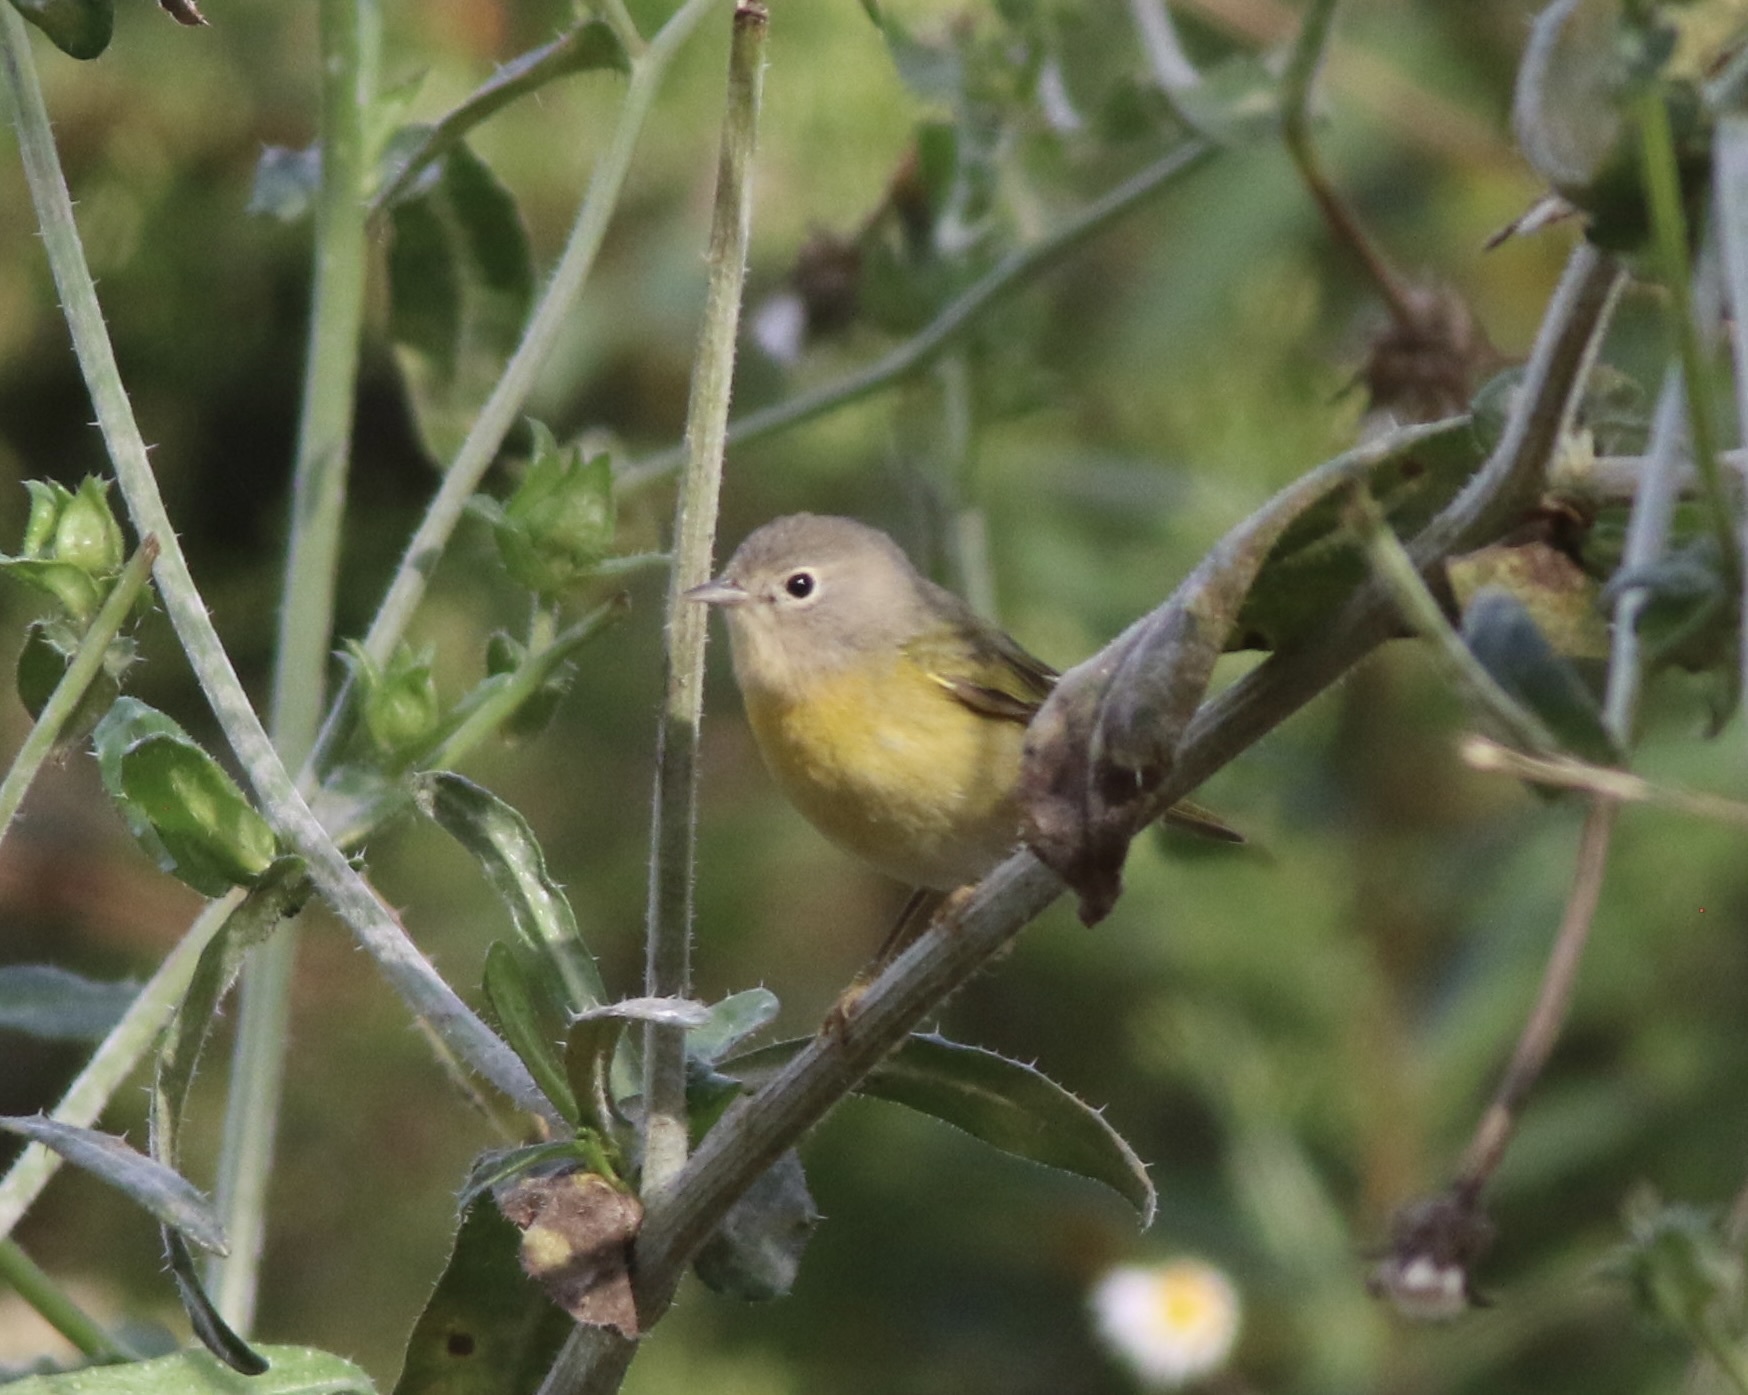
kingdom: Animalia
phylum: Chordata
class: Aves
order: Passeriformes
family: Parulidae
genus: Leiothlypis
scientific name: Leiothlypis ruficapilla
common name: Nashville warbler
